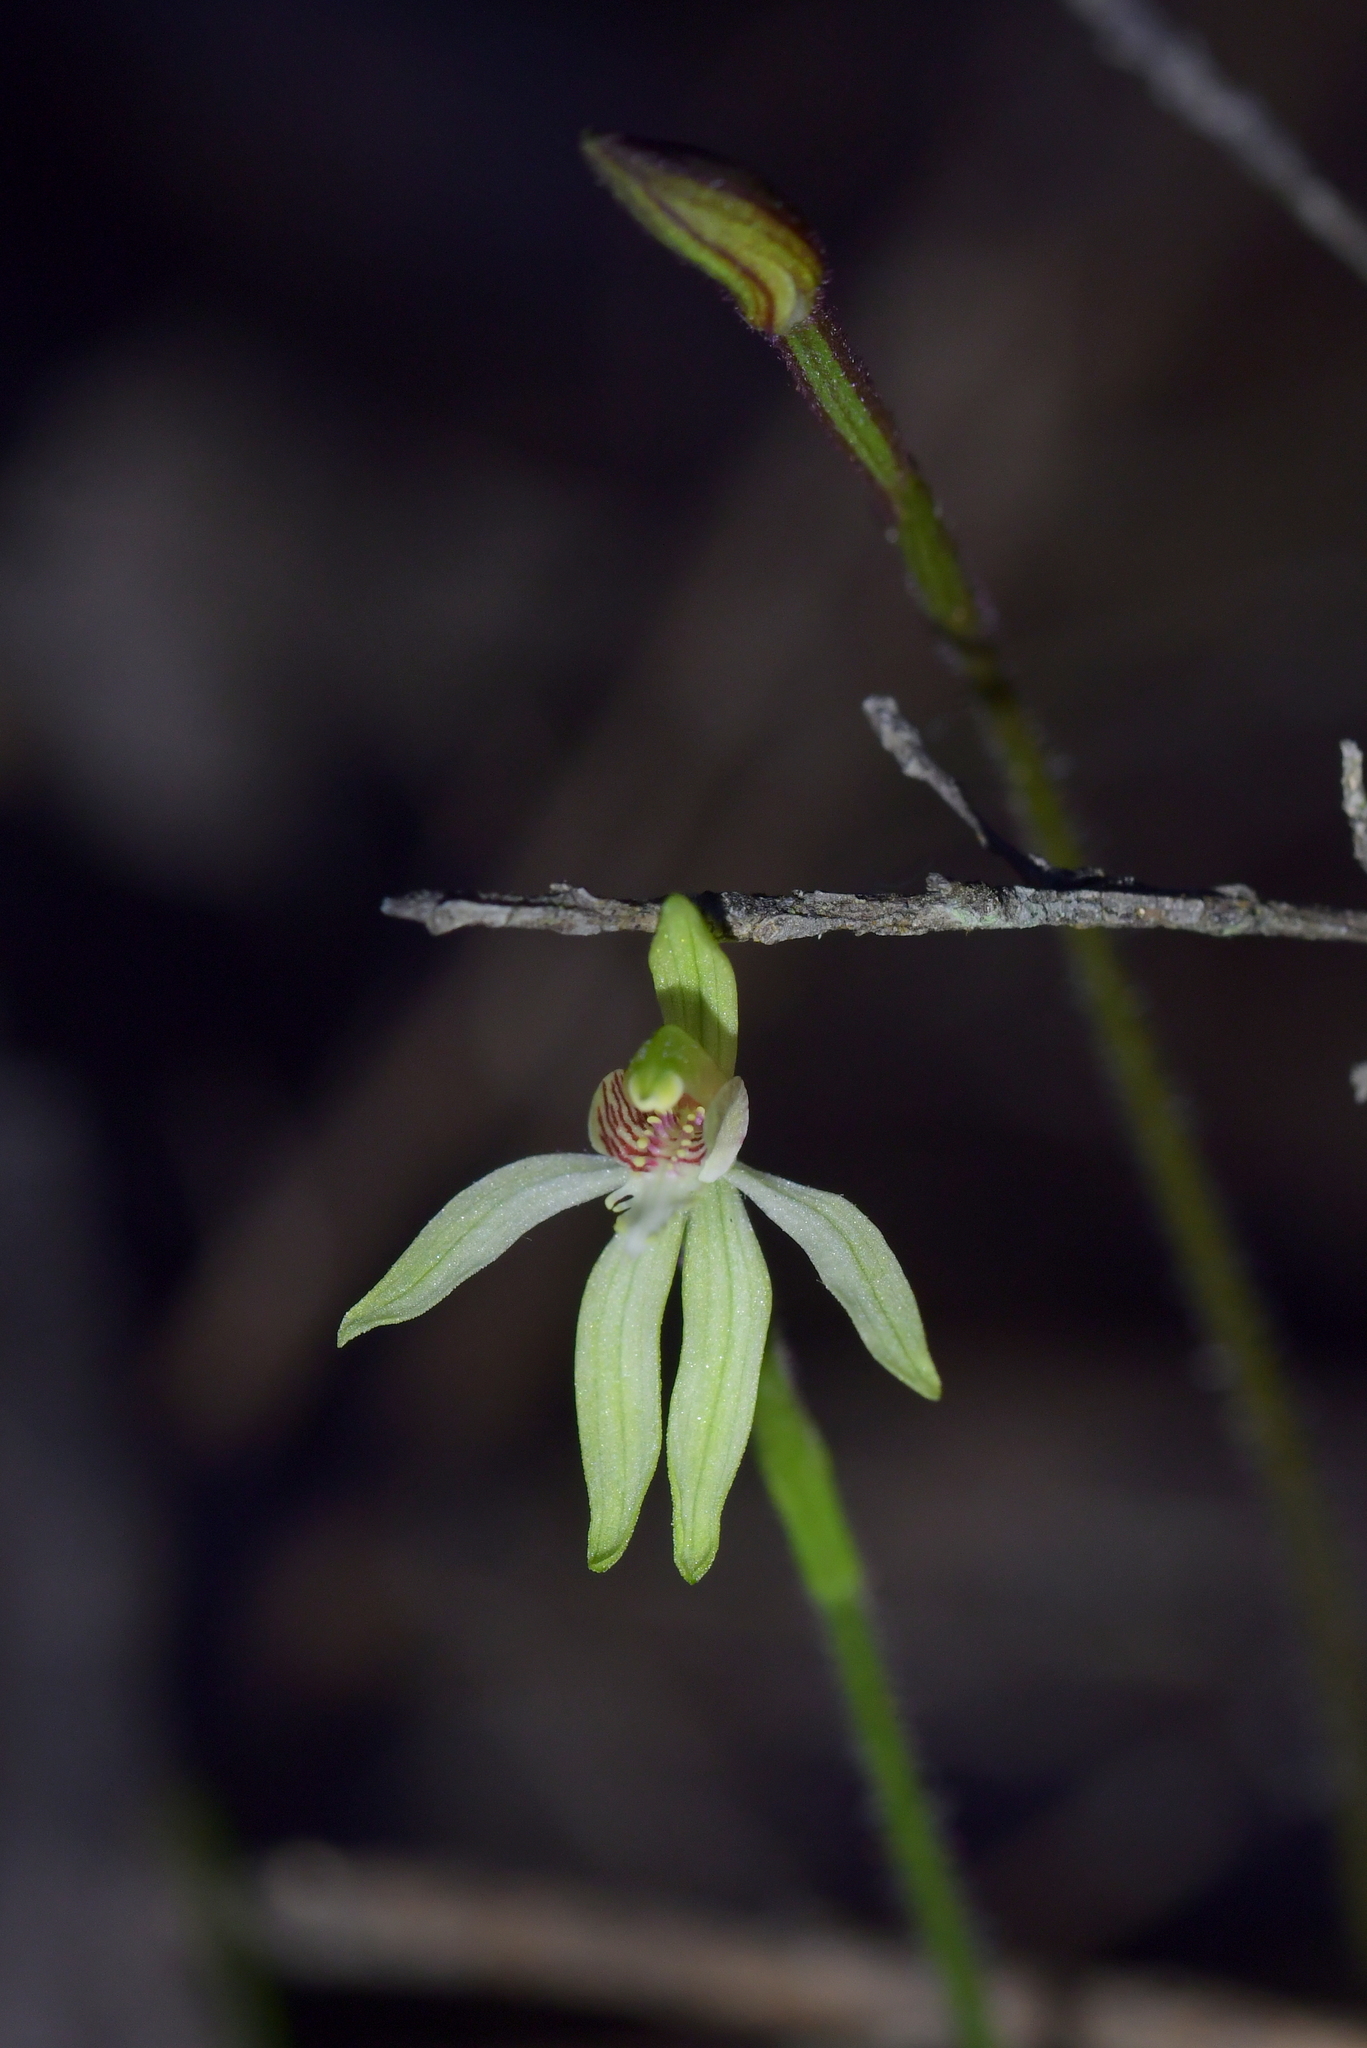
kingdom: Plantae
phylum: Tracheophyta
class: Liliopsida
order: Asparagales
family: Orchidaceae
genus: Caladenia
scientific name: Caladenia chlorostyla
